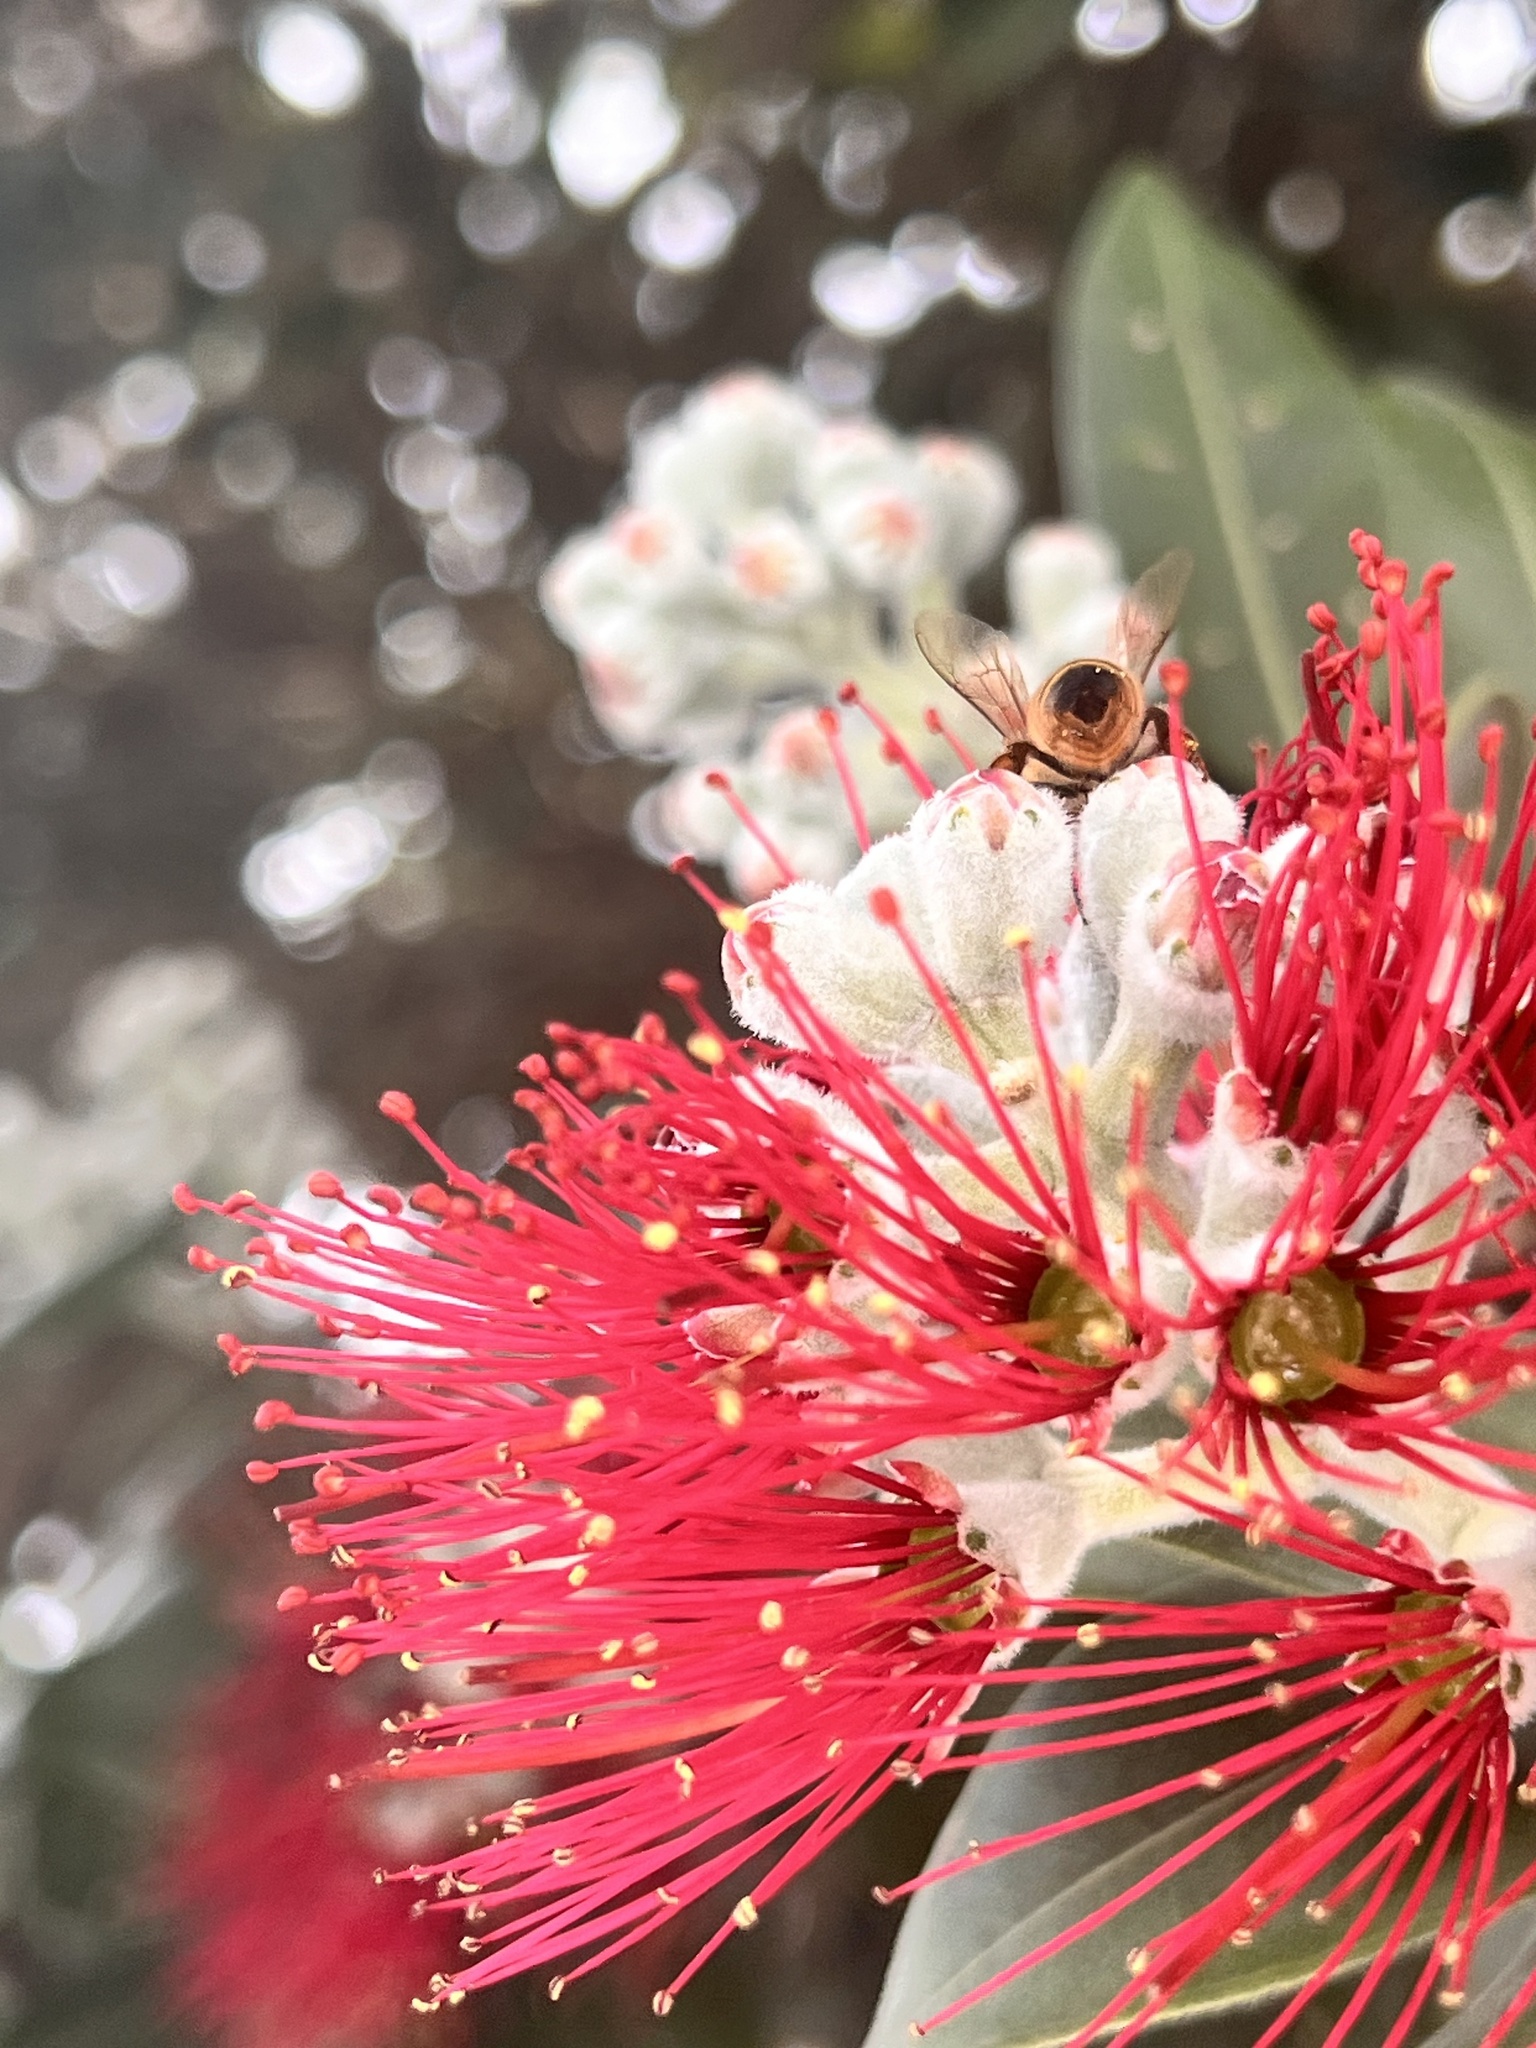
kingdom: Plantae
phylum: Tracheophyta
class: Magnoliopsida
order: Myrtales
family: Myrtaceae
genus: Metrosideros
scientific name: Metrosideros excelsa
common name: New zealand christmastree
